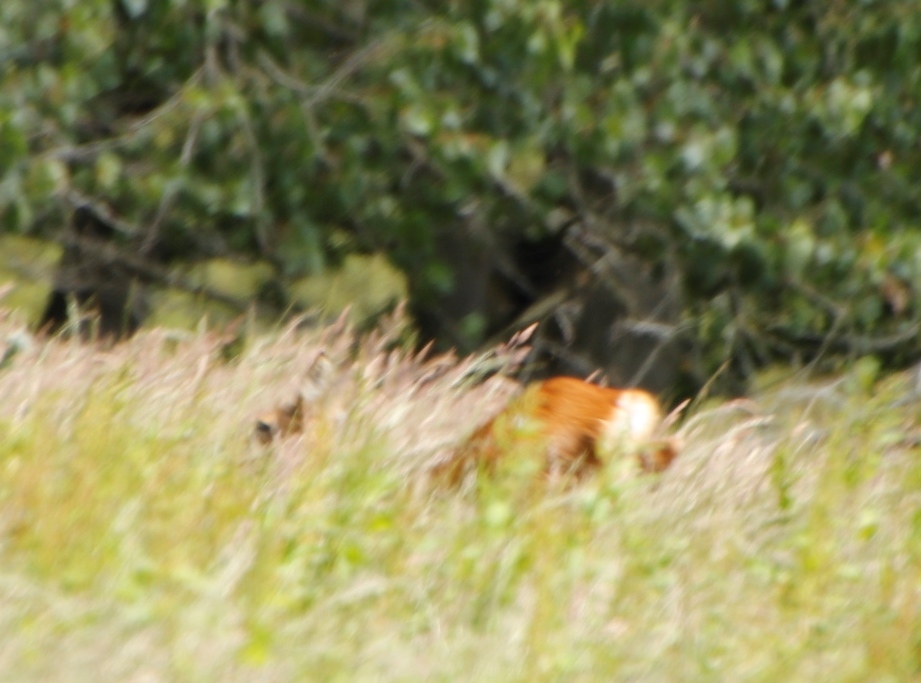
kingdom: Animalia
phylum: Chordata
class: Mammalia
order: Artiodactyla
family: Cervidae
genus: Capreolus
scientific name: Capreolus capreolus
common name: Western roe deer
